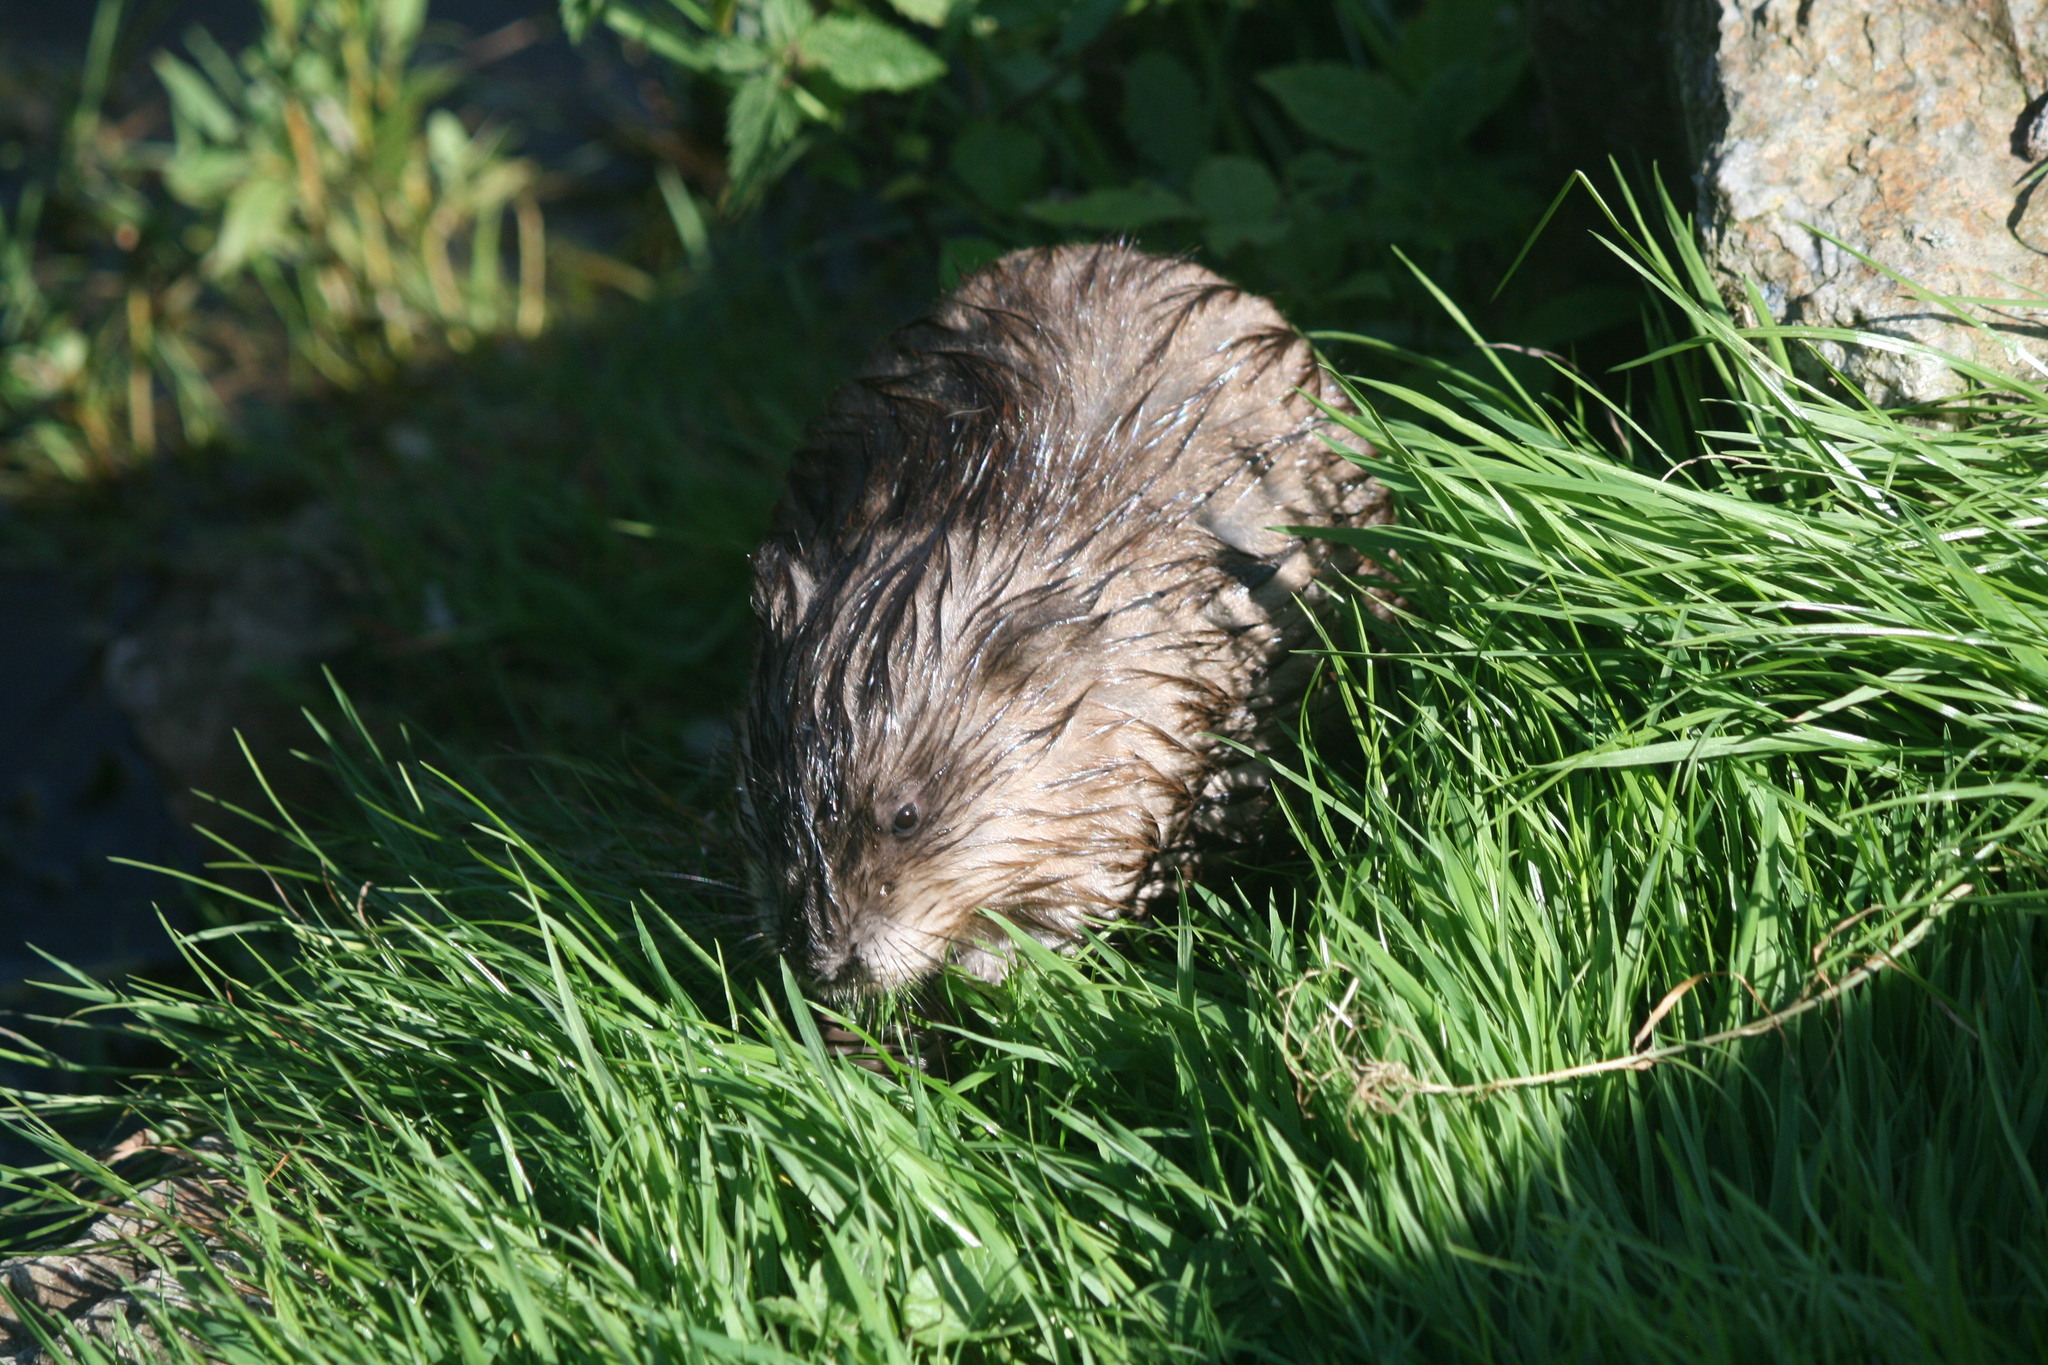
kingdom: Animalia
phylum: Chordata
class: Mammalia
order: Rodentia
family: Cricetidae
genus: Ondatra
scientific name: Ondatra zibethicus
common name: Muskrat
